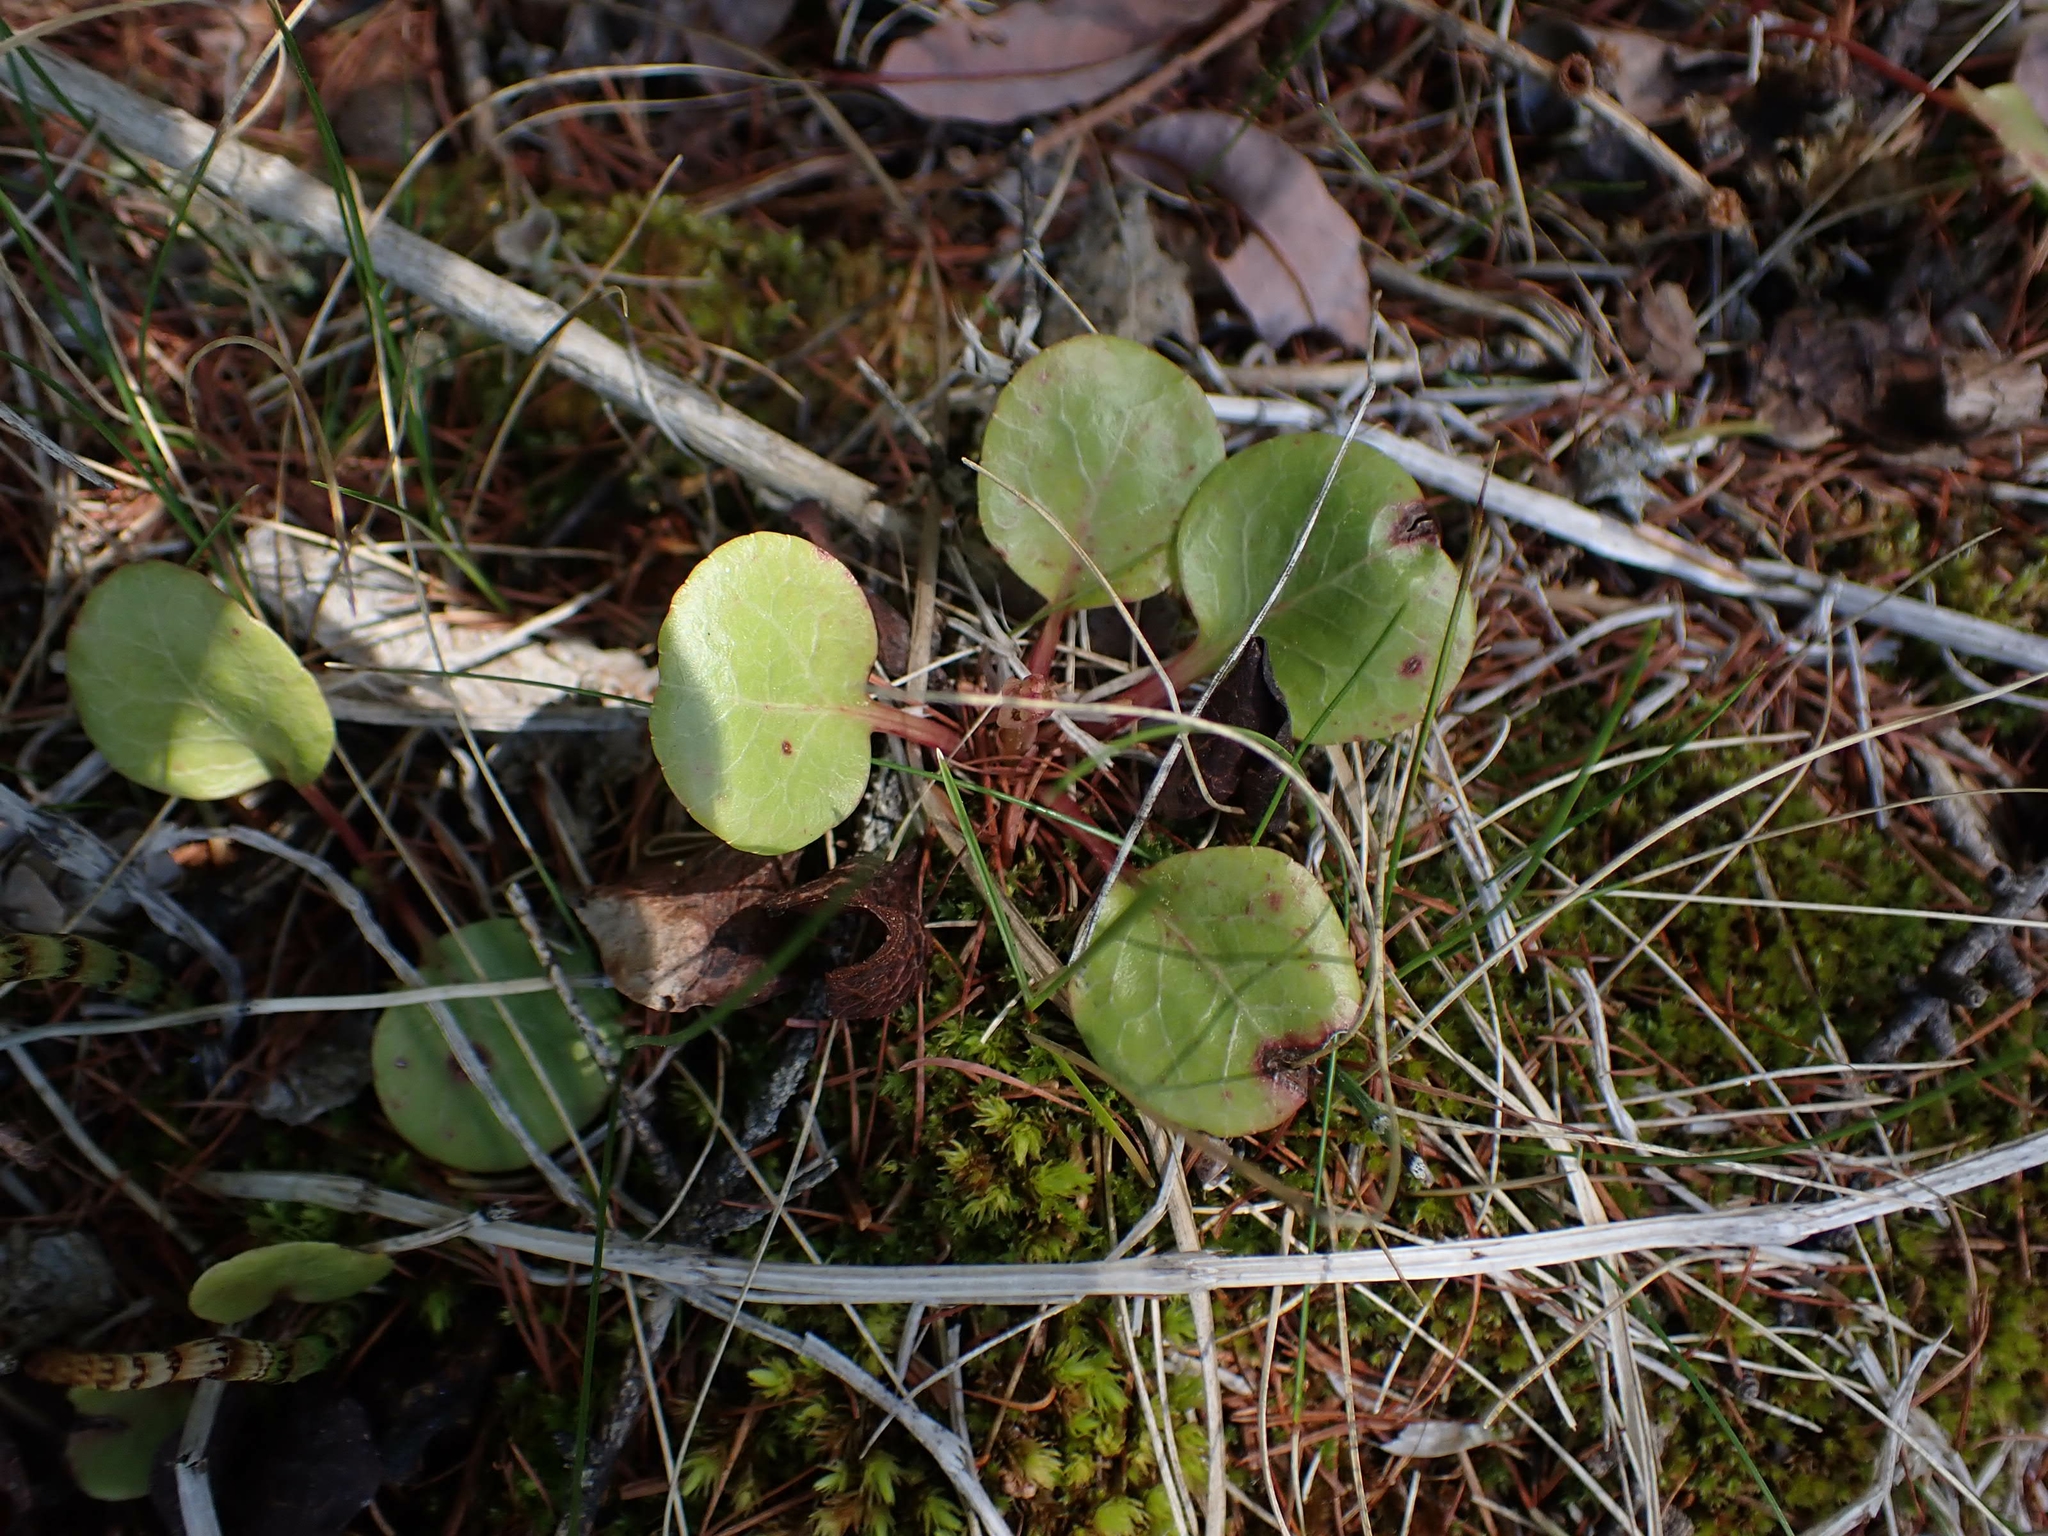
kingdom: Plantae
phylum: Tracheophyta
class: Magnoliopsida
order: Ericales
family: Ericaceae
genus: Pyrola
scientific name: Pyrola asarifolia
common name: Bog wintergreen
